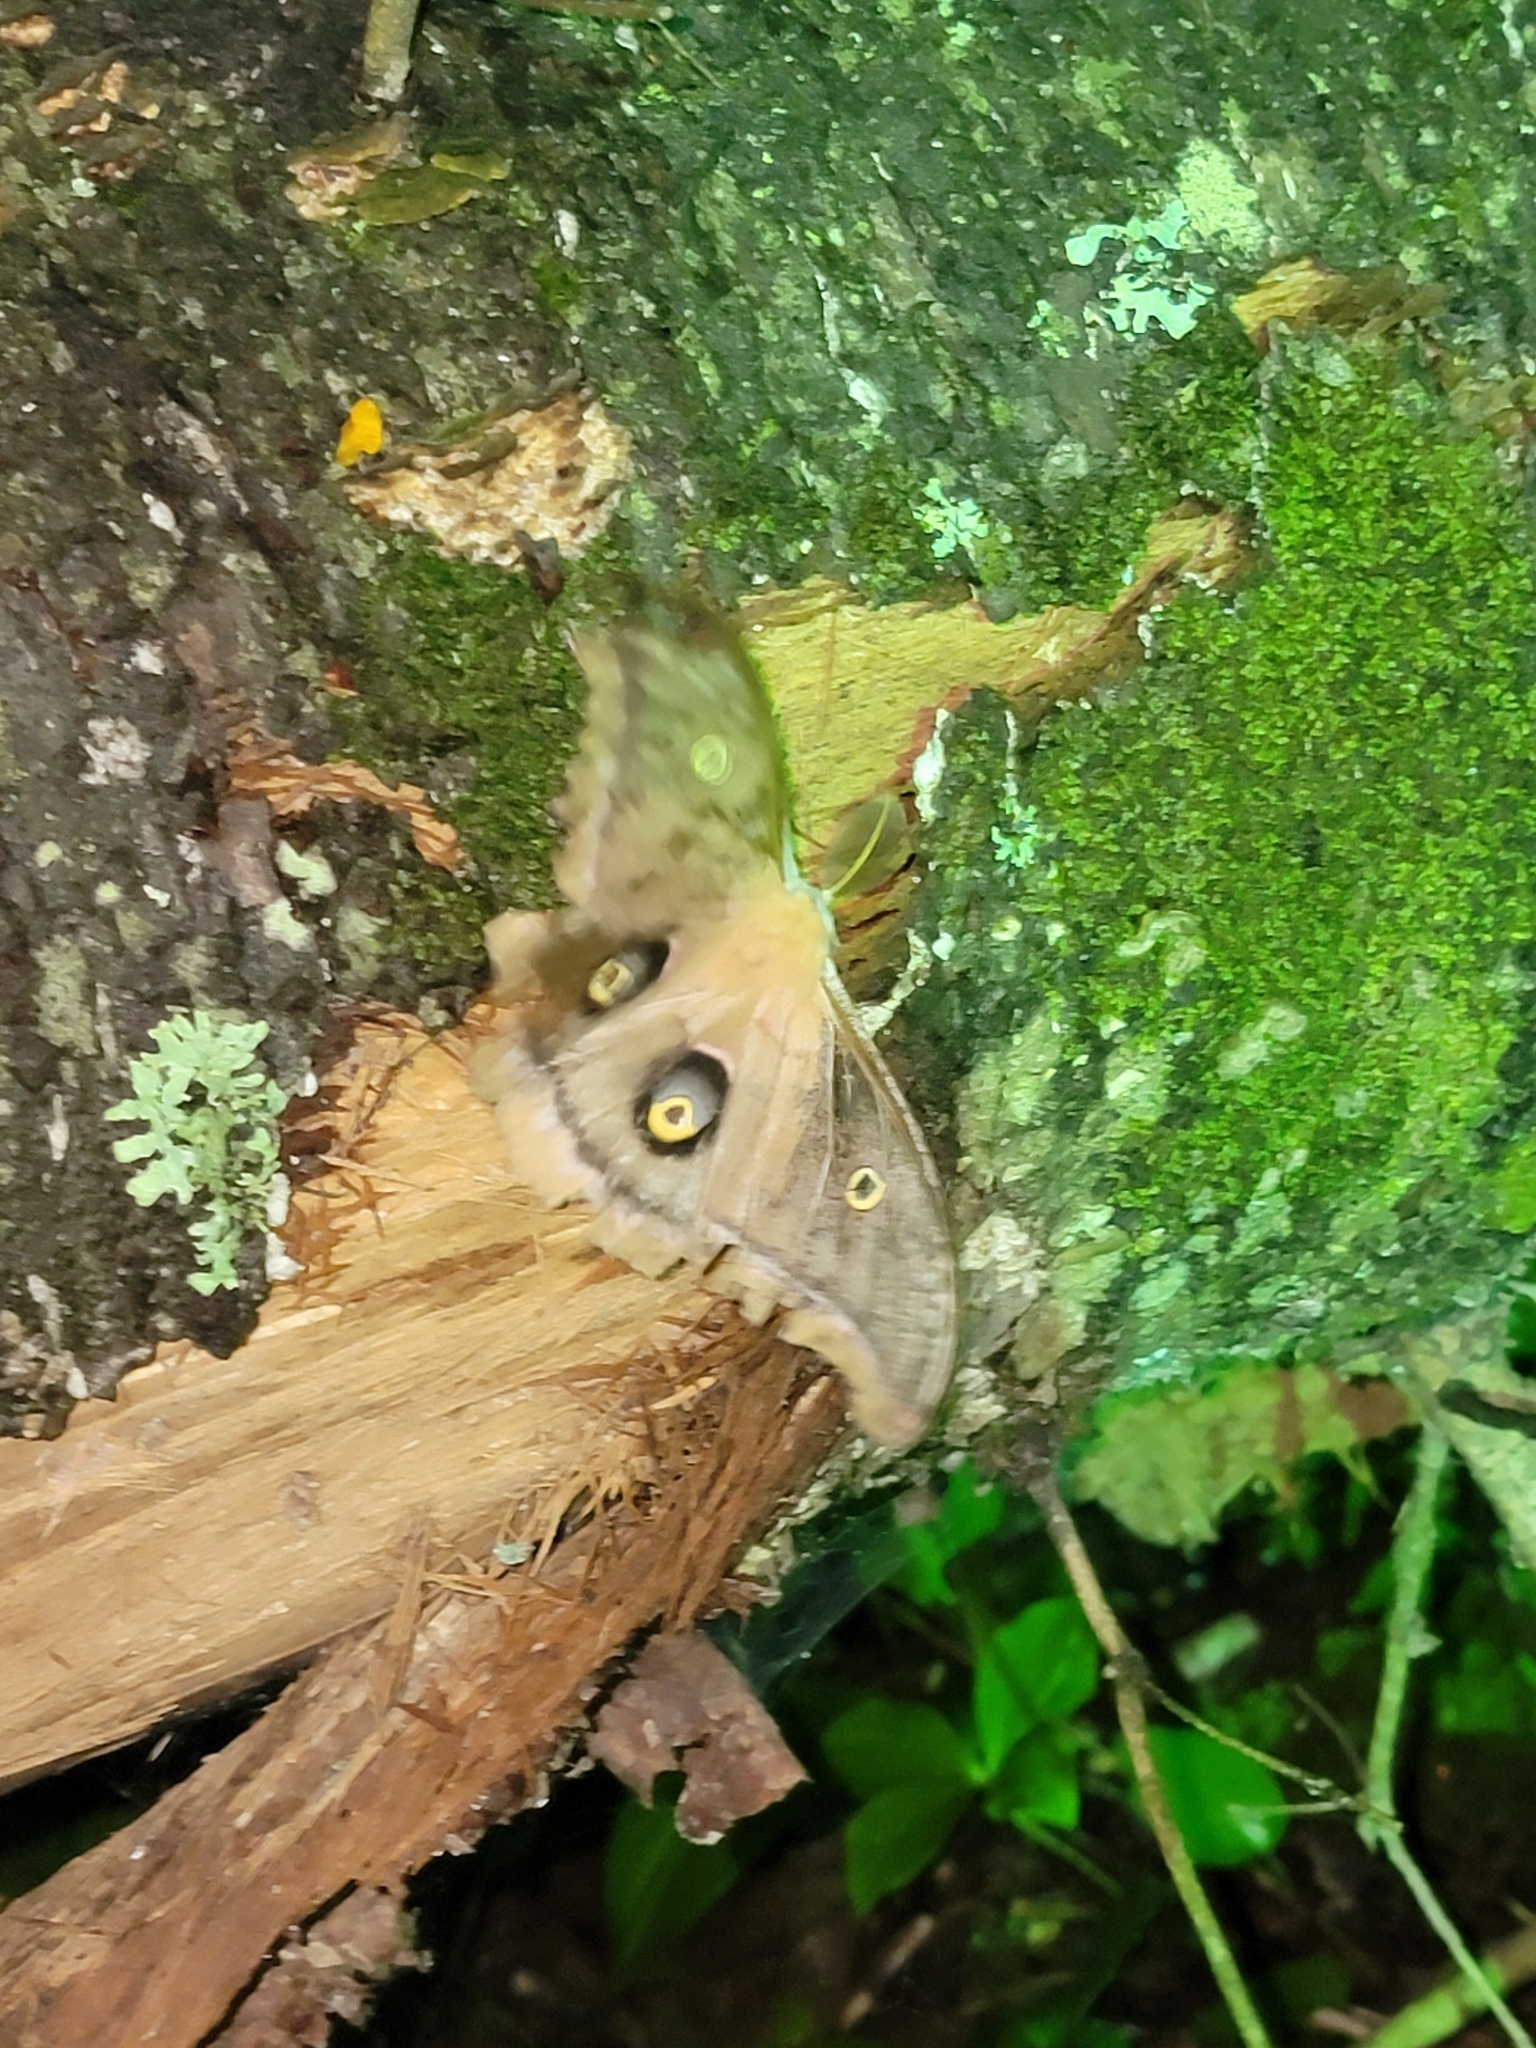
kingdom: Animalia
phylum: Arthropoda
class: Insecta
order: Lepidoptera
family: Saturniidae
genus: Antheraea
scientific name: Antheraea polyphemus
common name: Polyphemus moth
